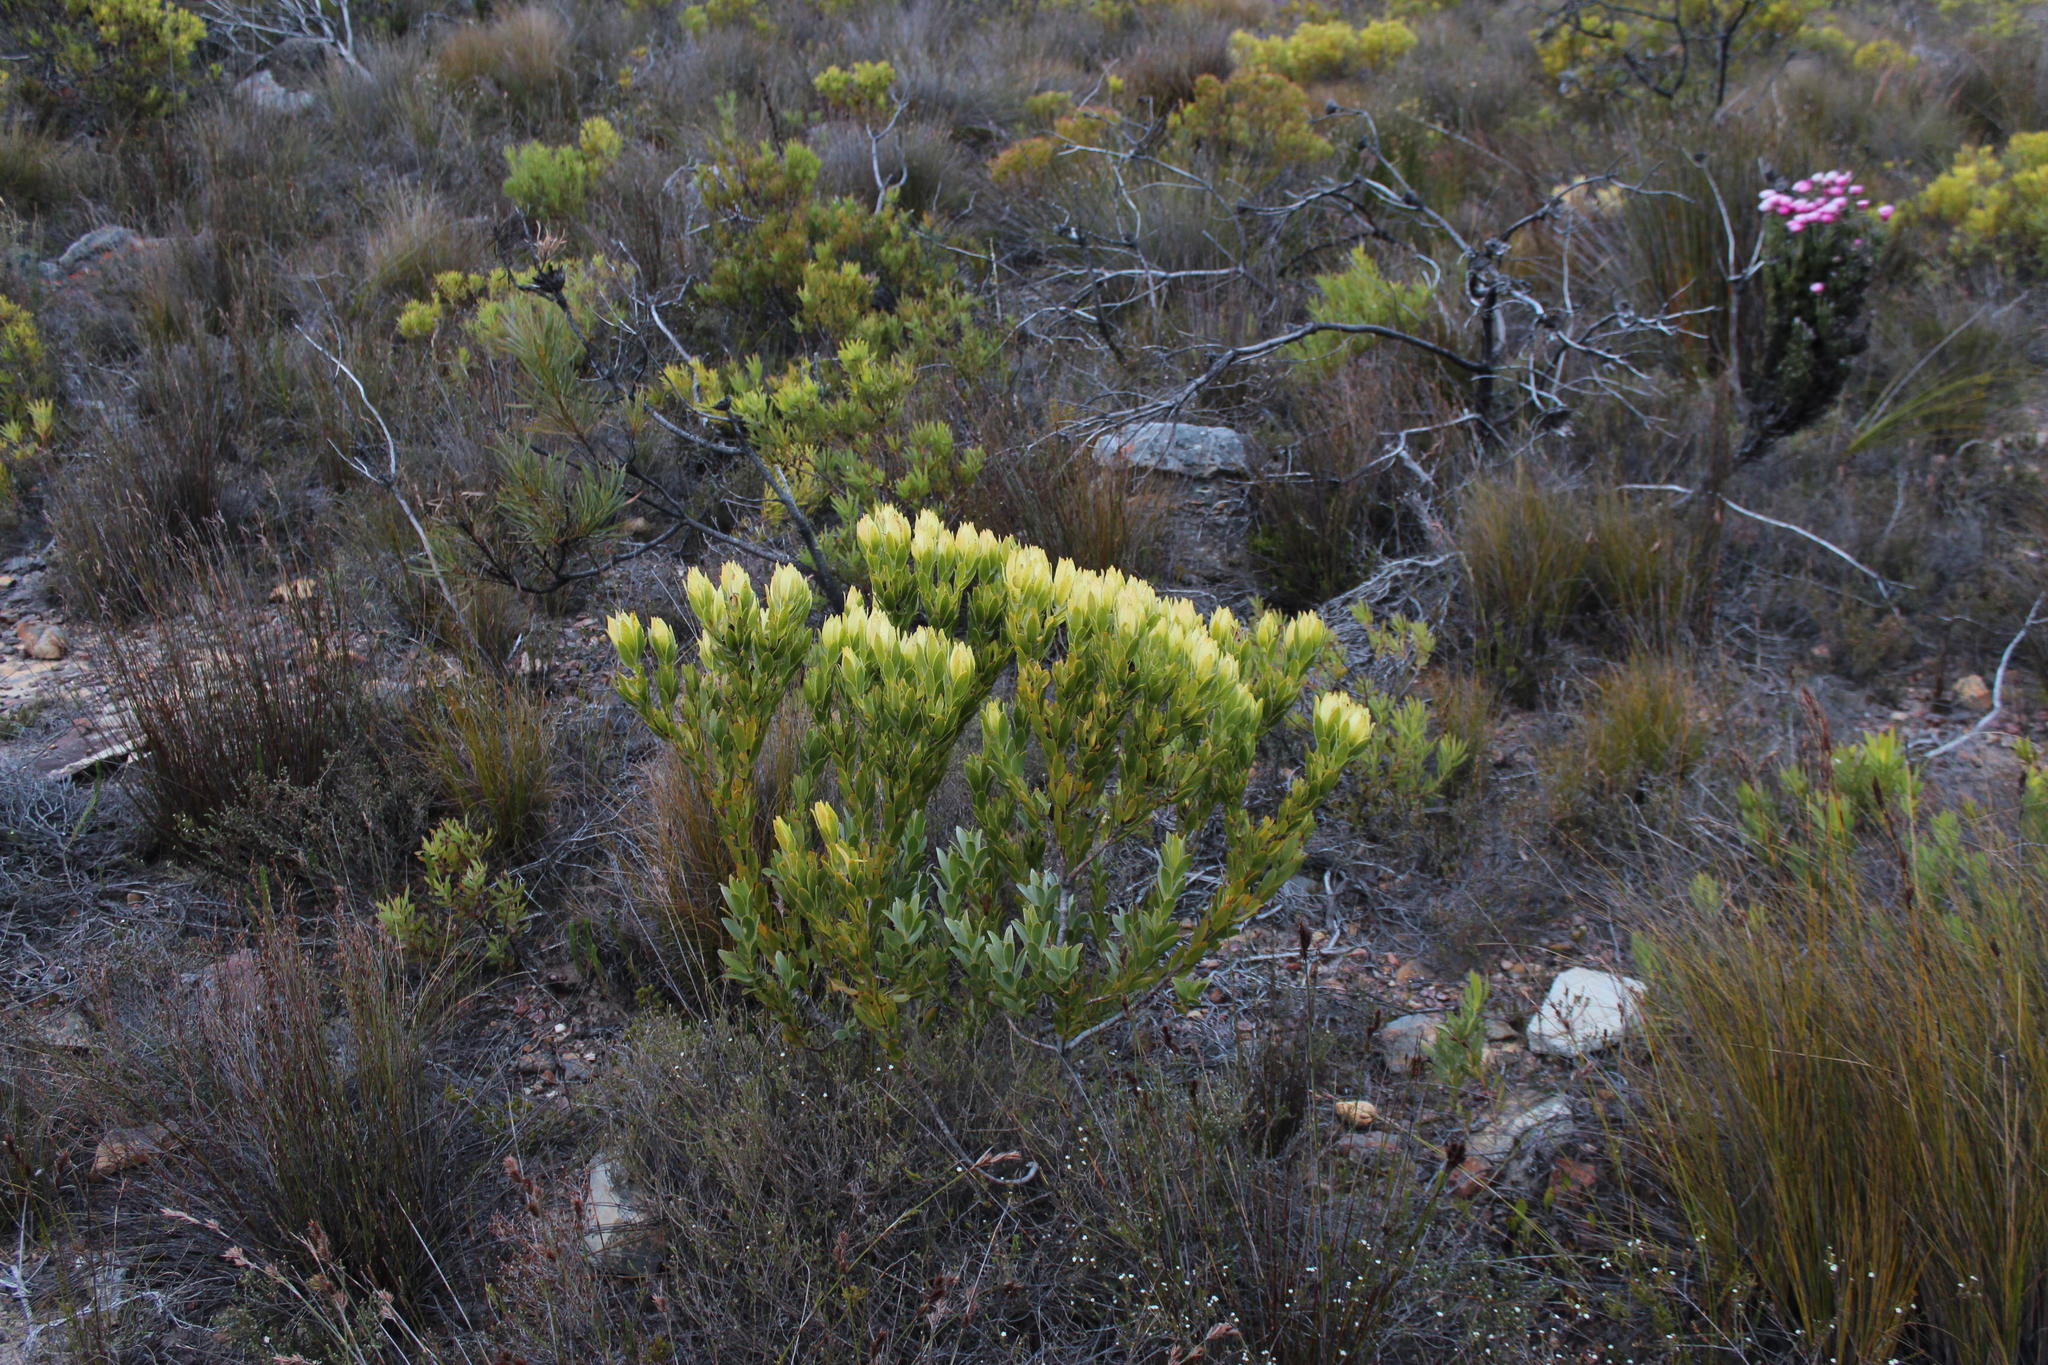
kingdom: Plantae
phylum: Tracheophyta
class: Magnoliopsida
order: Proteales
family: Proteaceae
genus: Leucadendron
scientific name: Leucadendron nervosum
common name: Silky-ruff conebush
